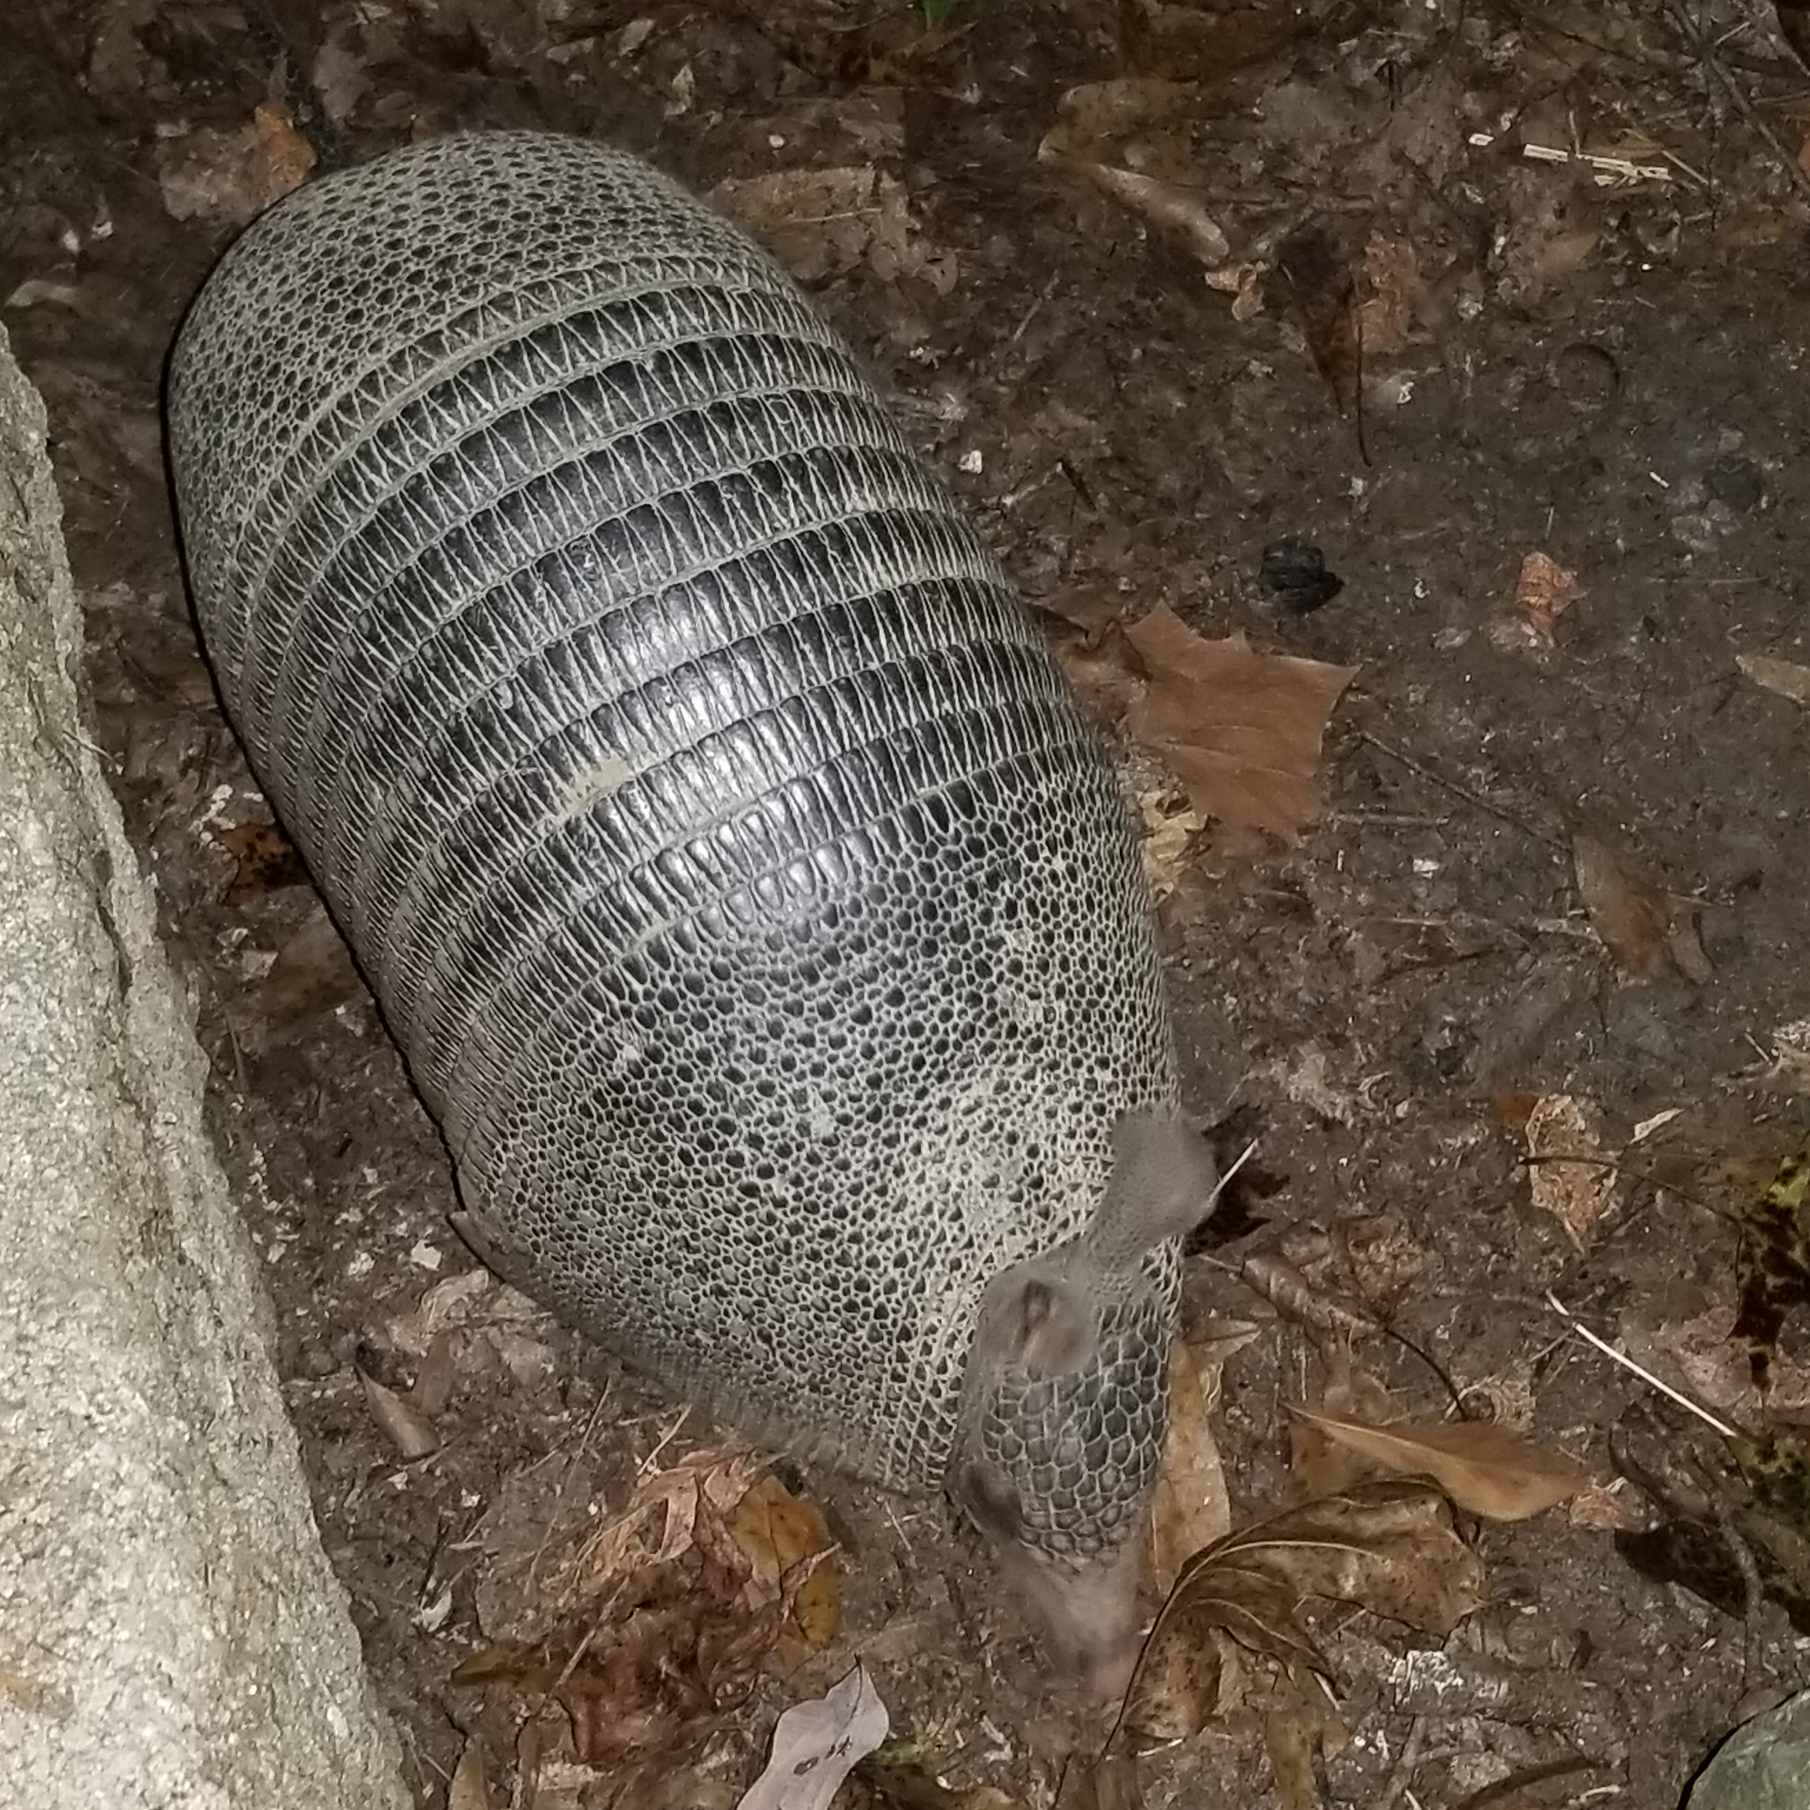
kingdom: Animalia
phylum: Chordata
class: Mammalia
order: Cingulata
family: Dasypodidae
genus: Dasypus
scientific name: Dasypus novemcinctus
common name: Nine-banded armadillo
